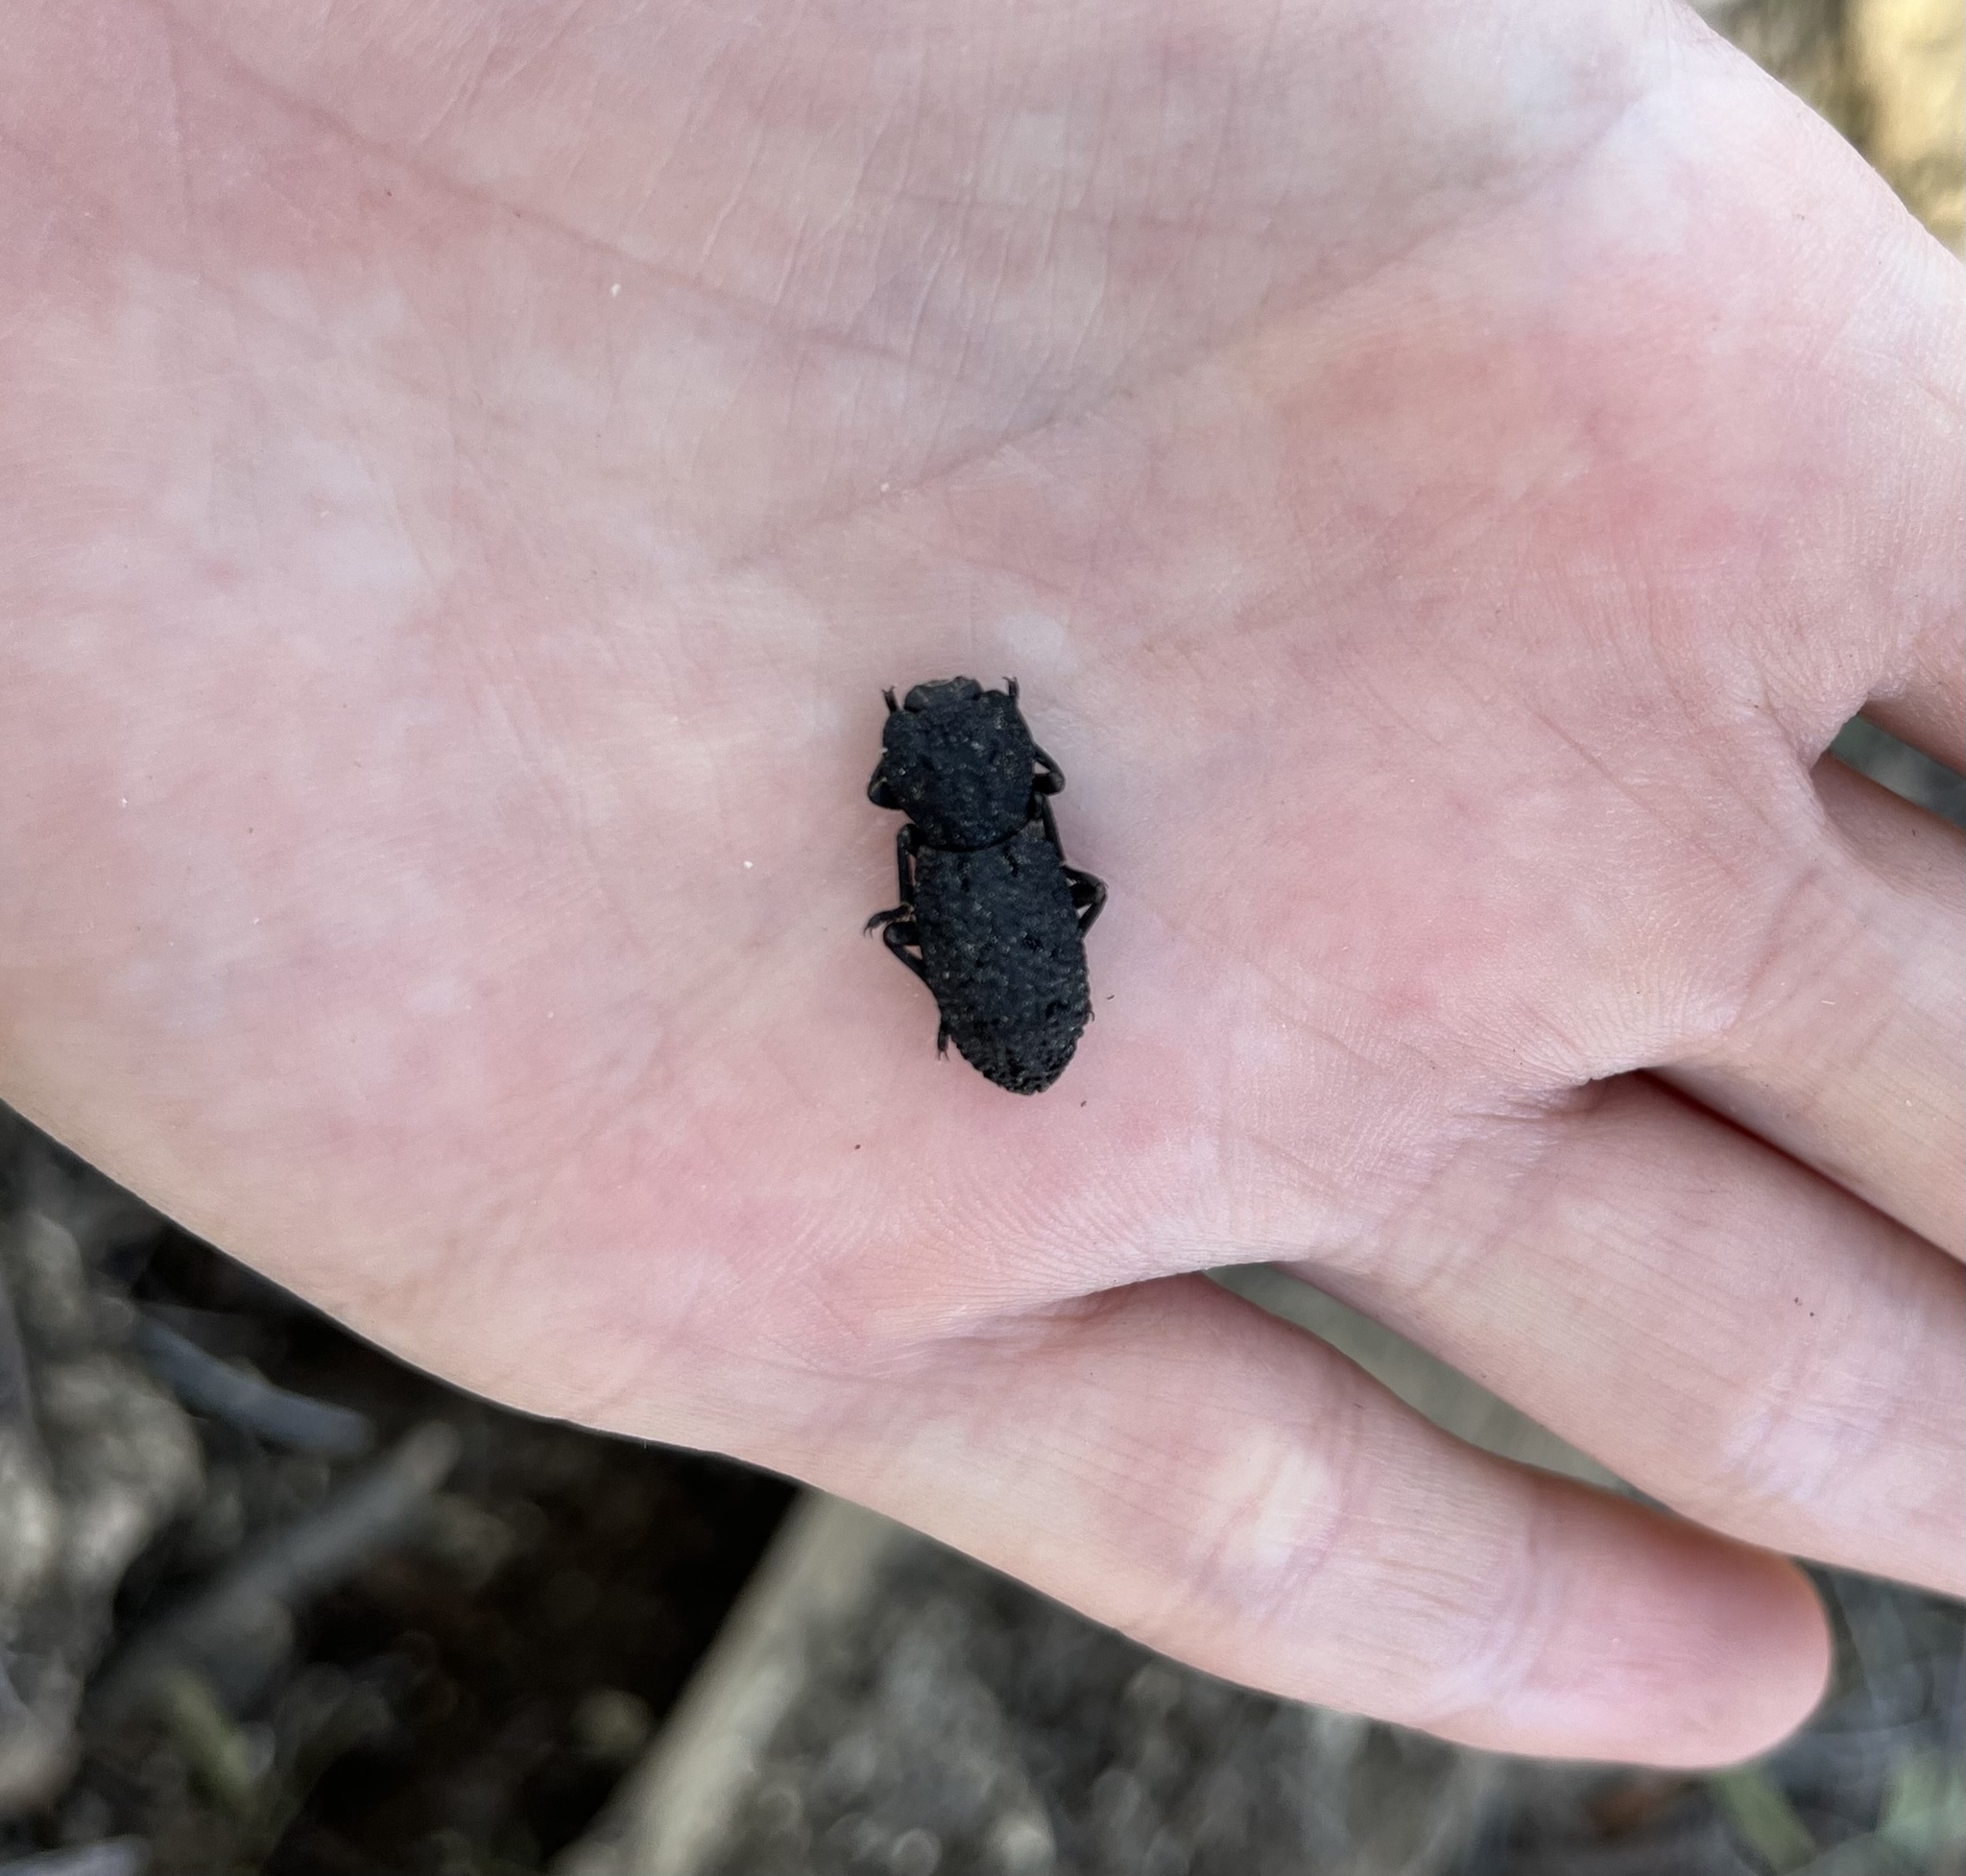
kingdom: Animalia
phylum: Arthropoda
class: Insecta
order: Coleoptera
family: Zopheridae
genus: Phloeodes
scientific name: Phloeodes diabolicus
